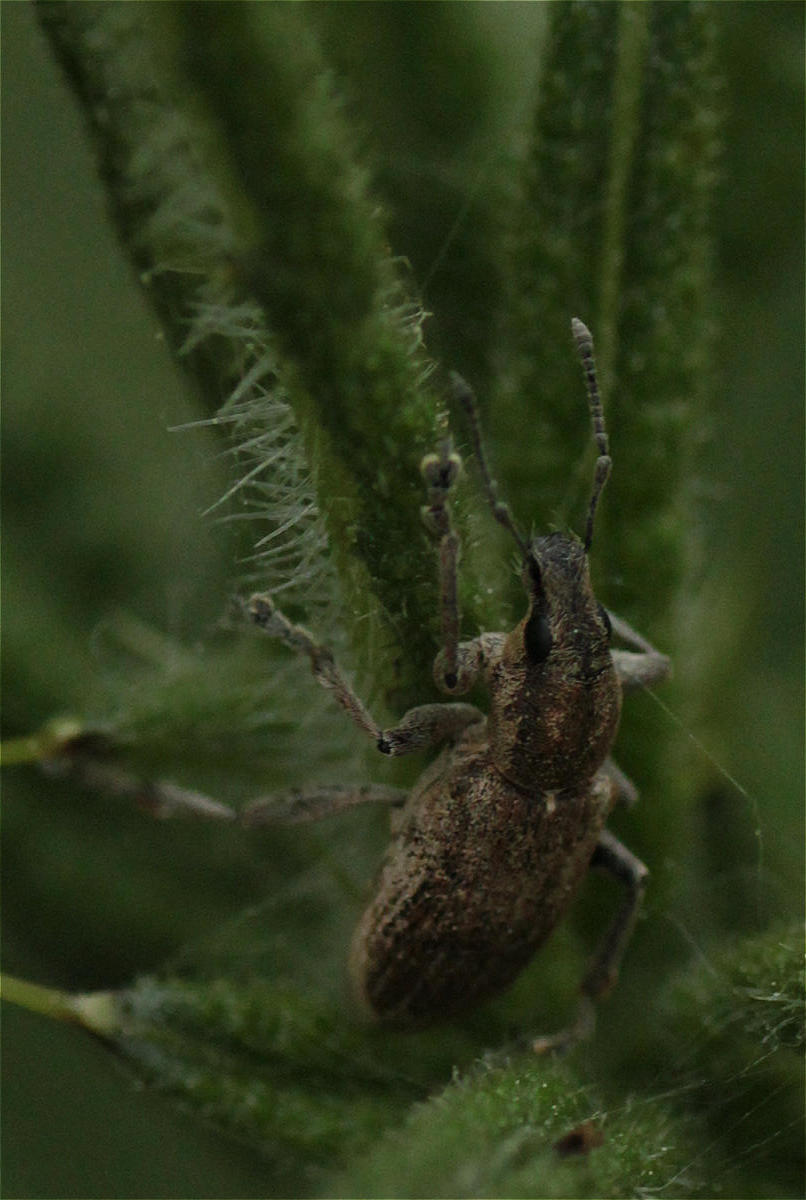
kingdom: Animalia
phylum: Arthropoda
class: Insecta
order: Coleoptera
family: Curculionidae
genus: Tanymecus
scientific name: Tanymecus palliatus
